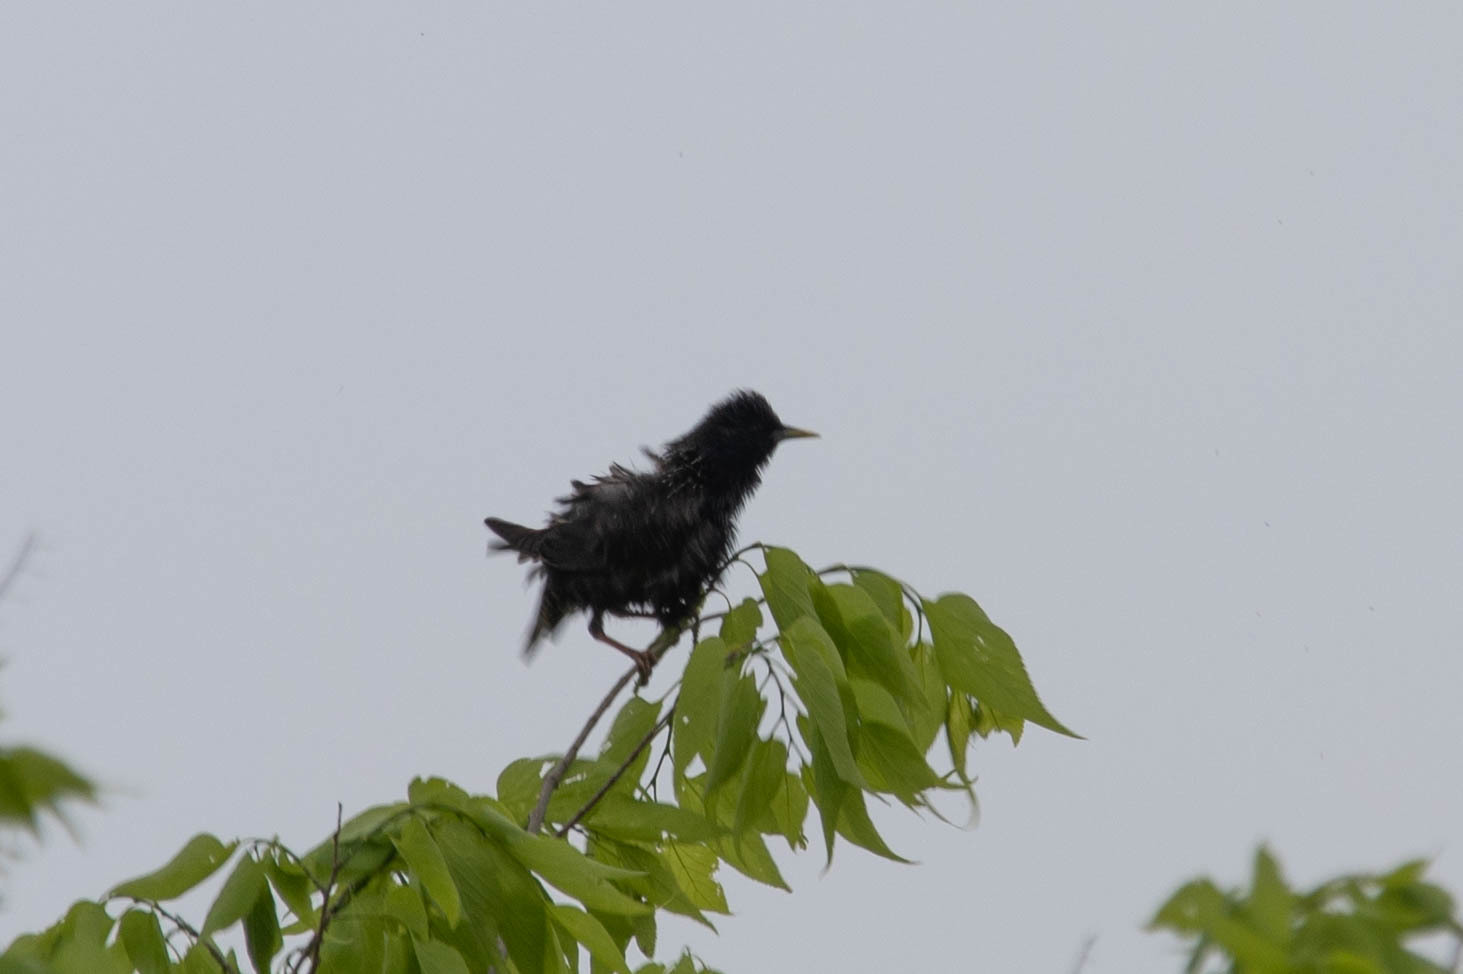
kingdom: Animalia
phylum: Chordata
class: Aves
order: Passeriformes
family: Sturnidae
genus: Sturnus
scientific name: Sturnus vulgaris
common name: Common starling
